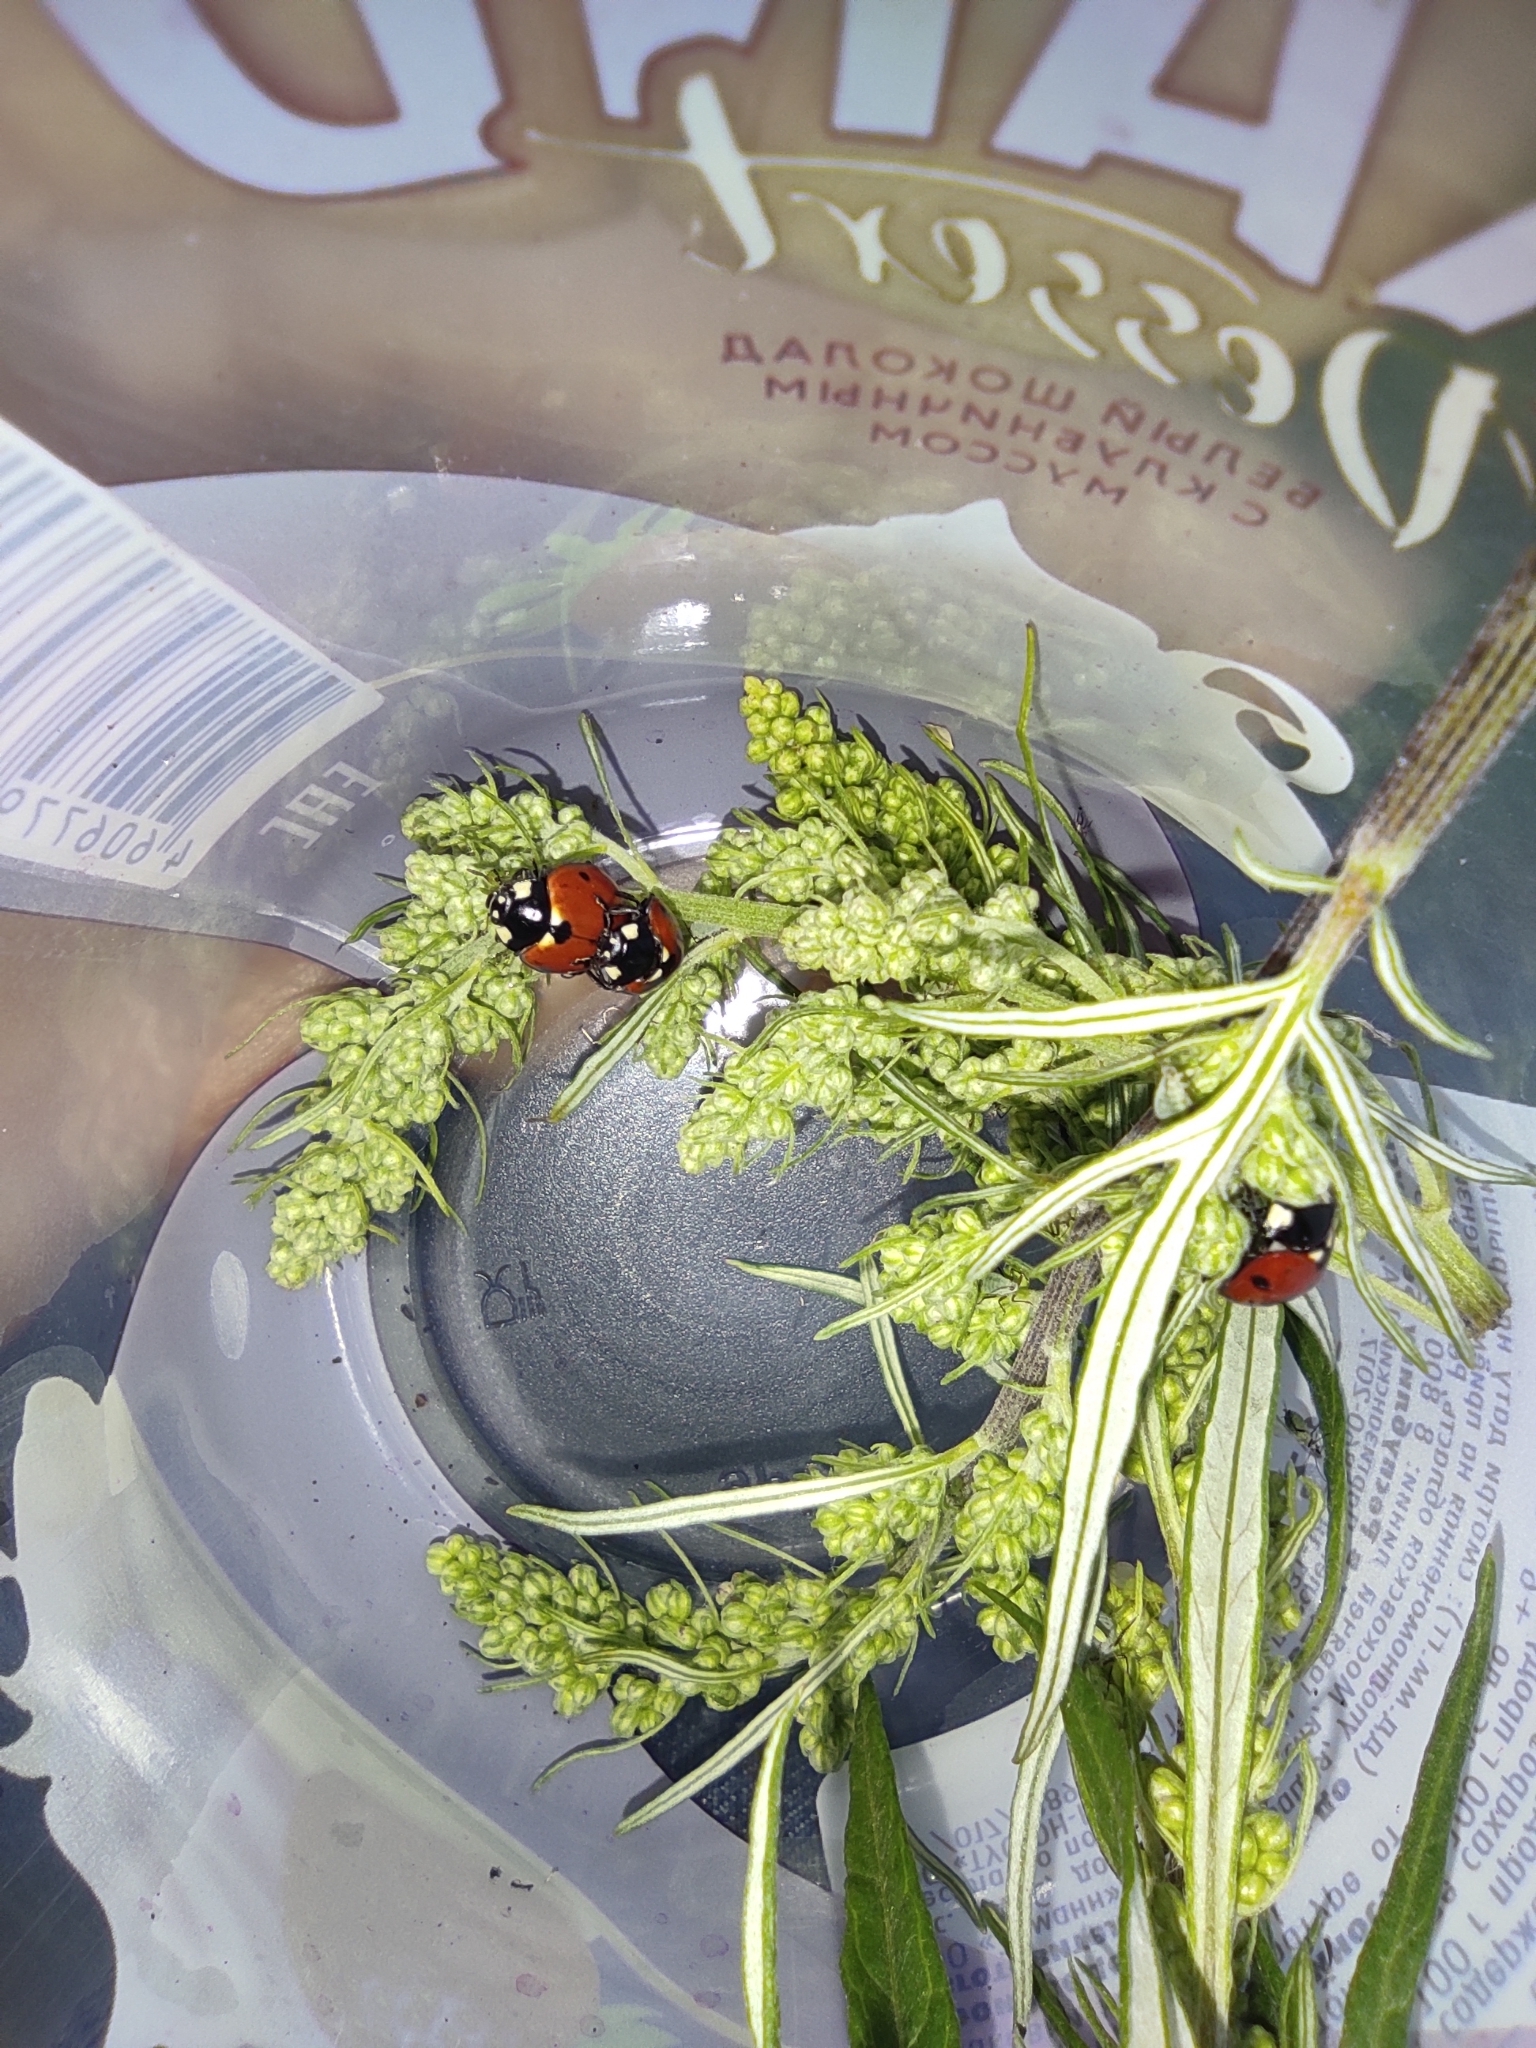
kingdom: Animalia
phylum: Arthropoda
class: Insecta
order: Coleoptera
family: Coccinellidae
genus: Coccinella
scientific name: Coccinella septempunctata
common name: Sevenspotted lady beetle
